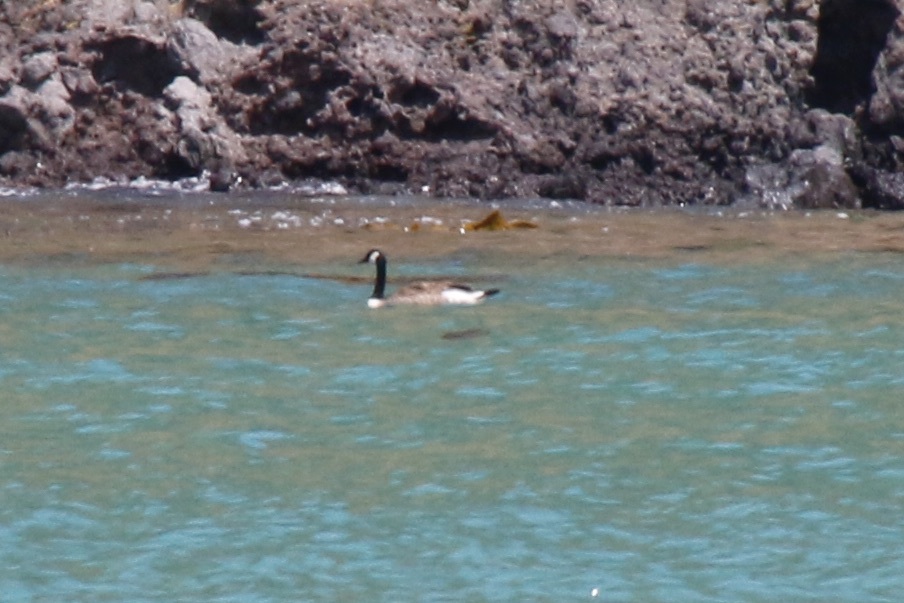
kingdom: Animalia
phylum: Chordata
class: Aves
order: Anseriformes
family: Anatidae
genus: Branta
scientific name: Branta canadensis
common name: Canada goose
